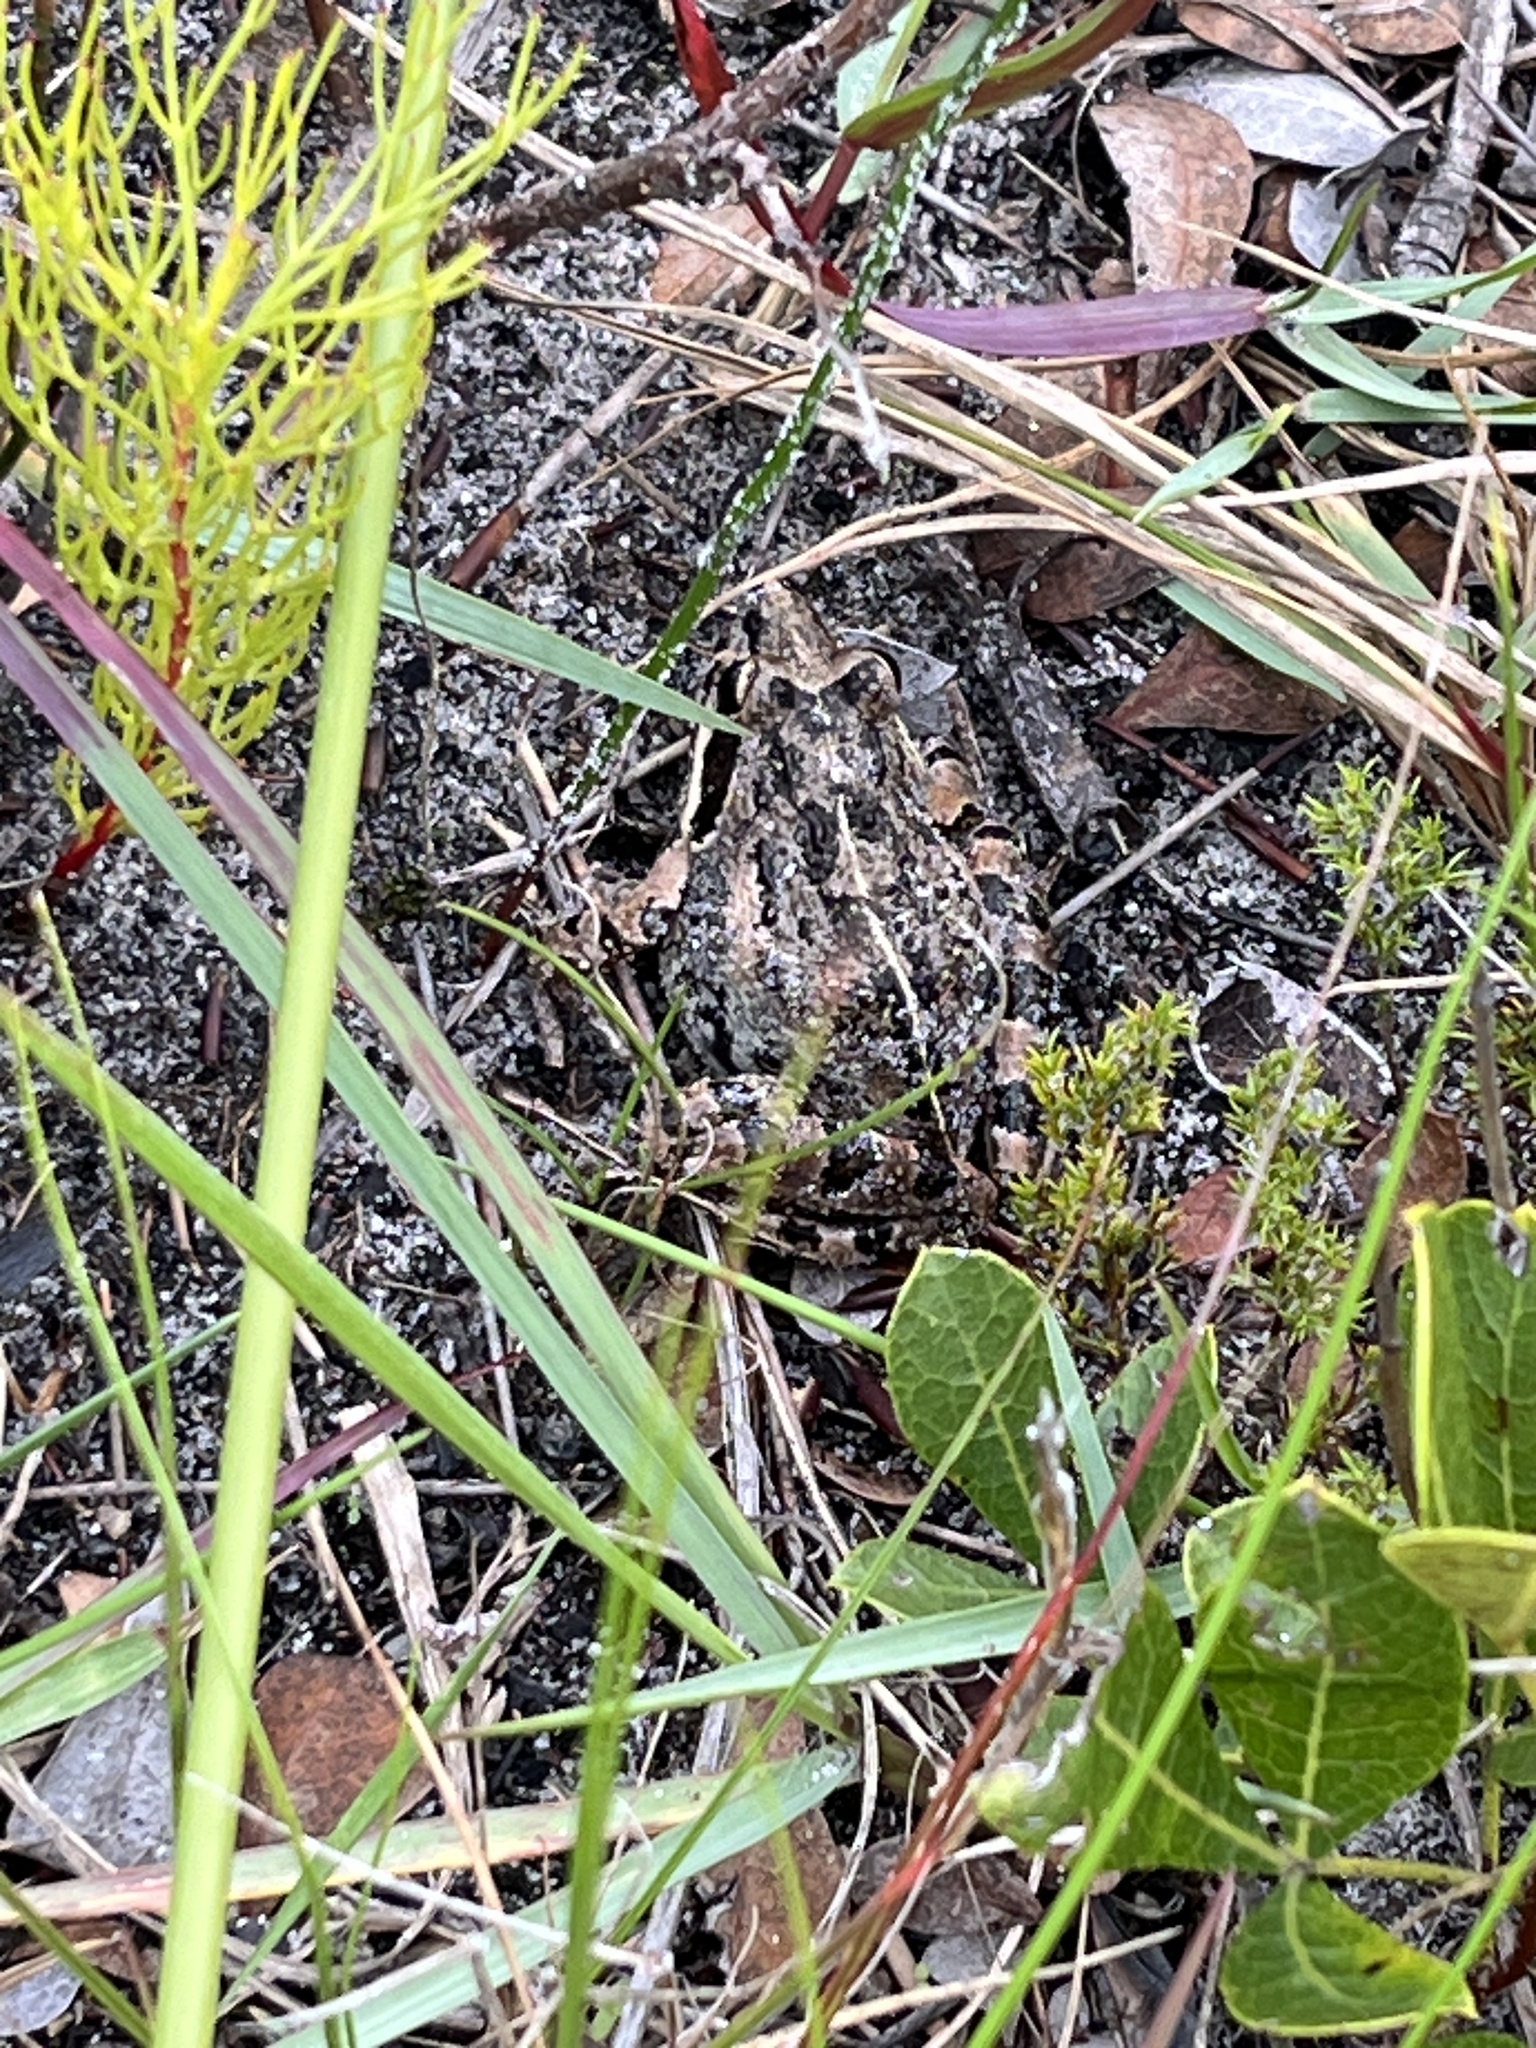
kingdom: Animalia
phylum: Chordata
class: Amphibia
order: Anura
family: Pyxicephalidae
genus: Strongylopus
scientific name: Strongylopus grayii
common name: Gray's stream frog
